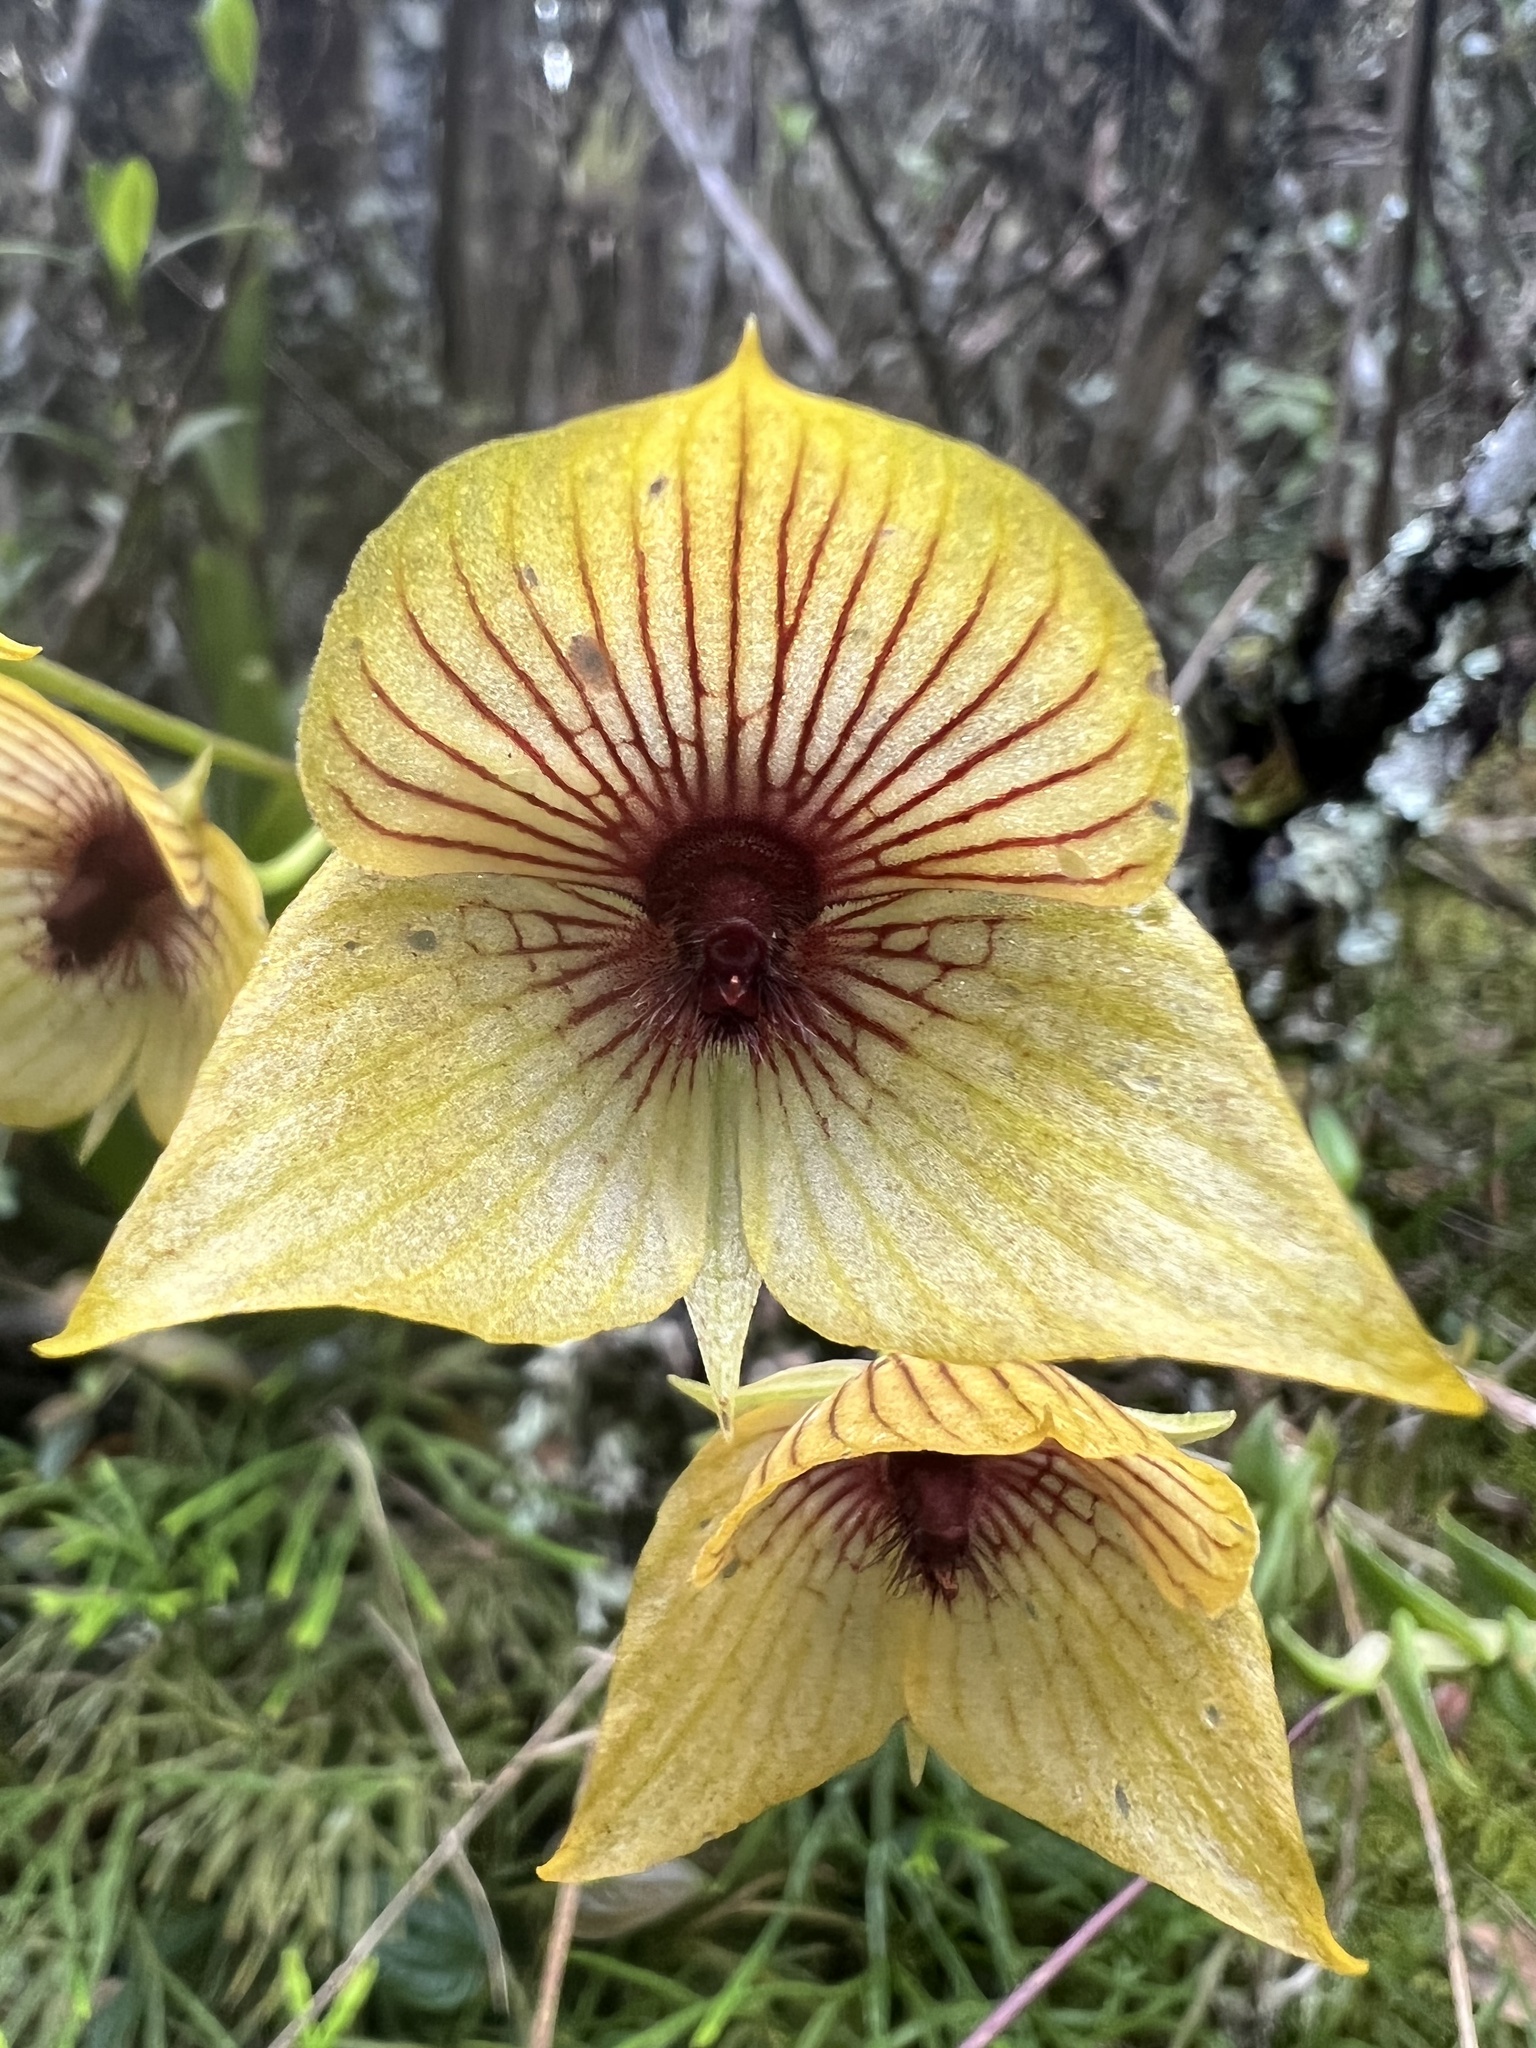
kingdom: Plantae
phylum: Tracheophyta
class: Liliopsida
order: Asparagales
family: Orchidaceae
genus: Telipogon
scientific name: Telipogon nervosus
